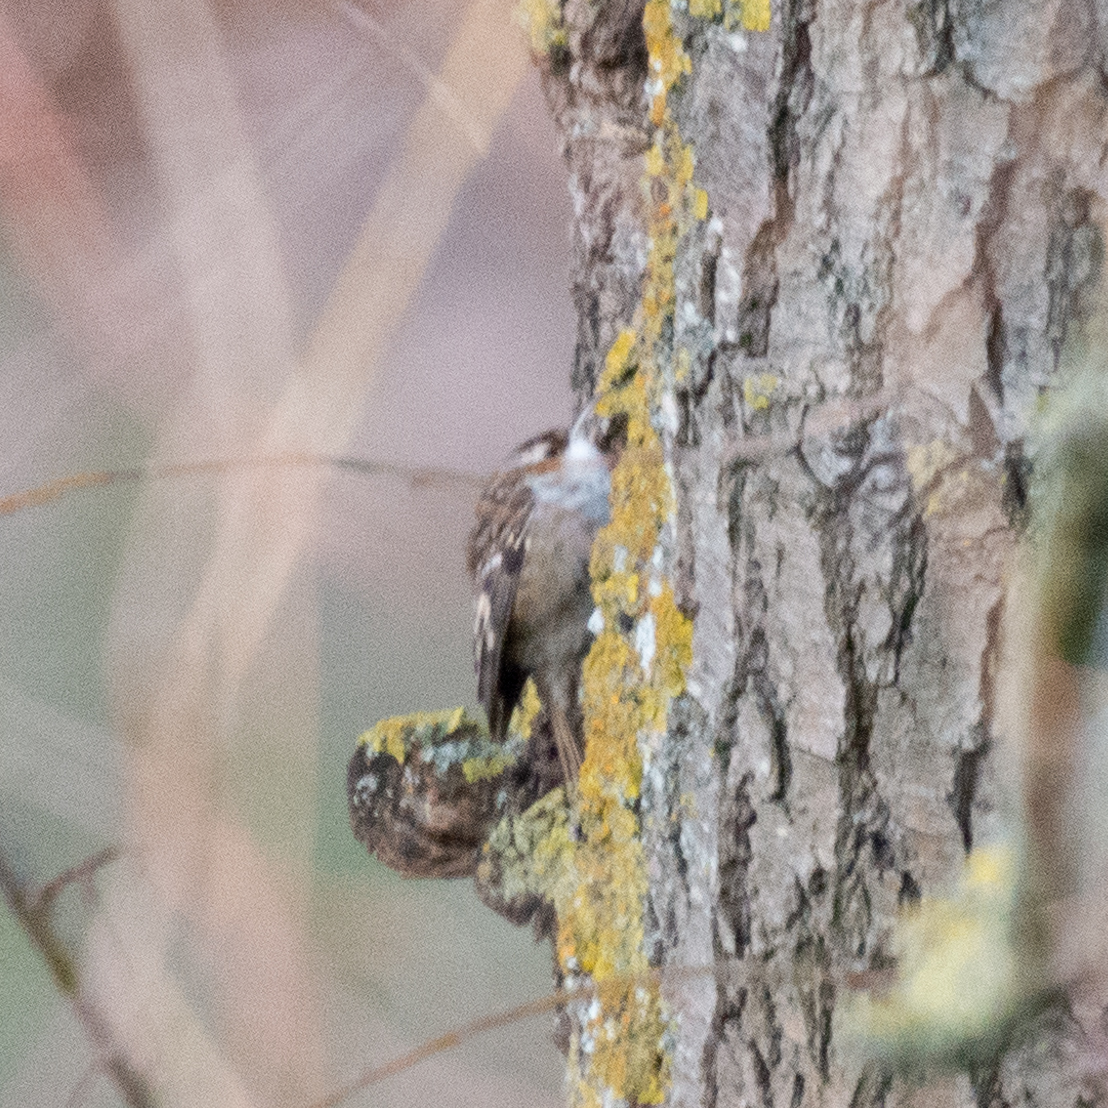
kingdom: Animalia
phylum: Chordata
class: Aves
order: Passeriformes
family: Certhiidae
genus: Certhia
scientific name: Certhia brachydactyla
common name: Short-toed treecreeper
